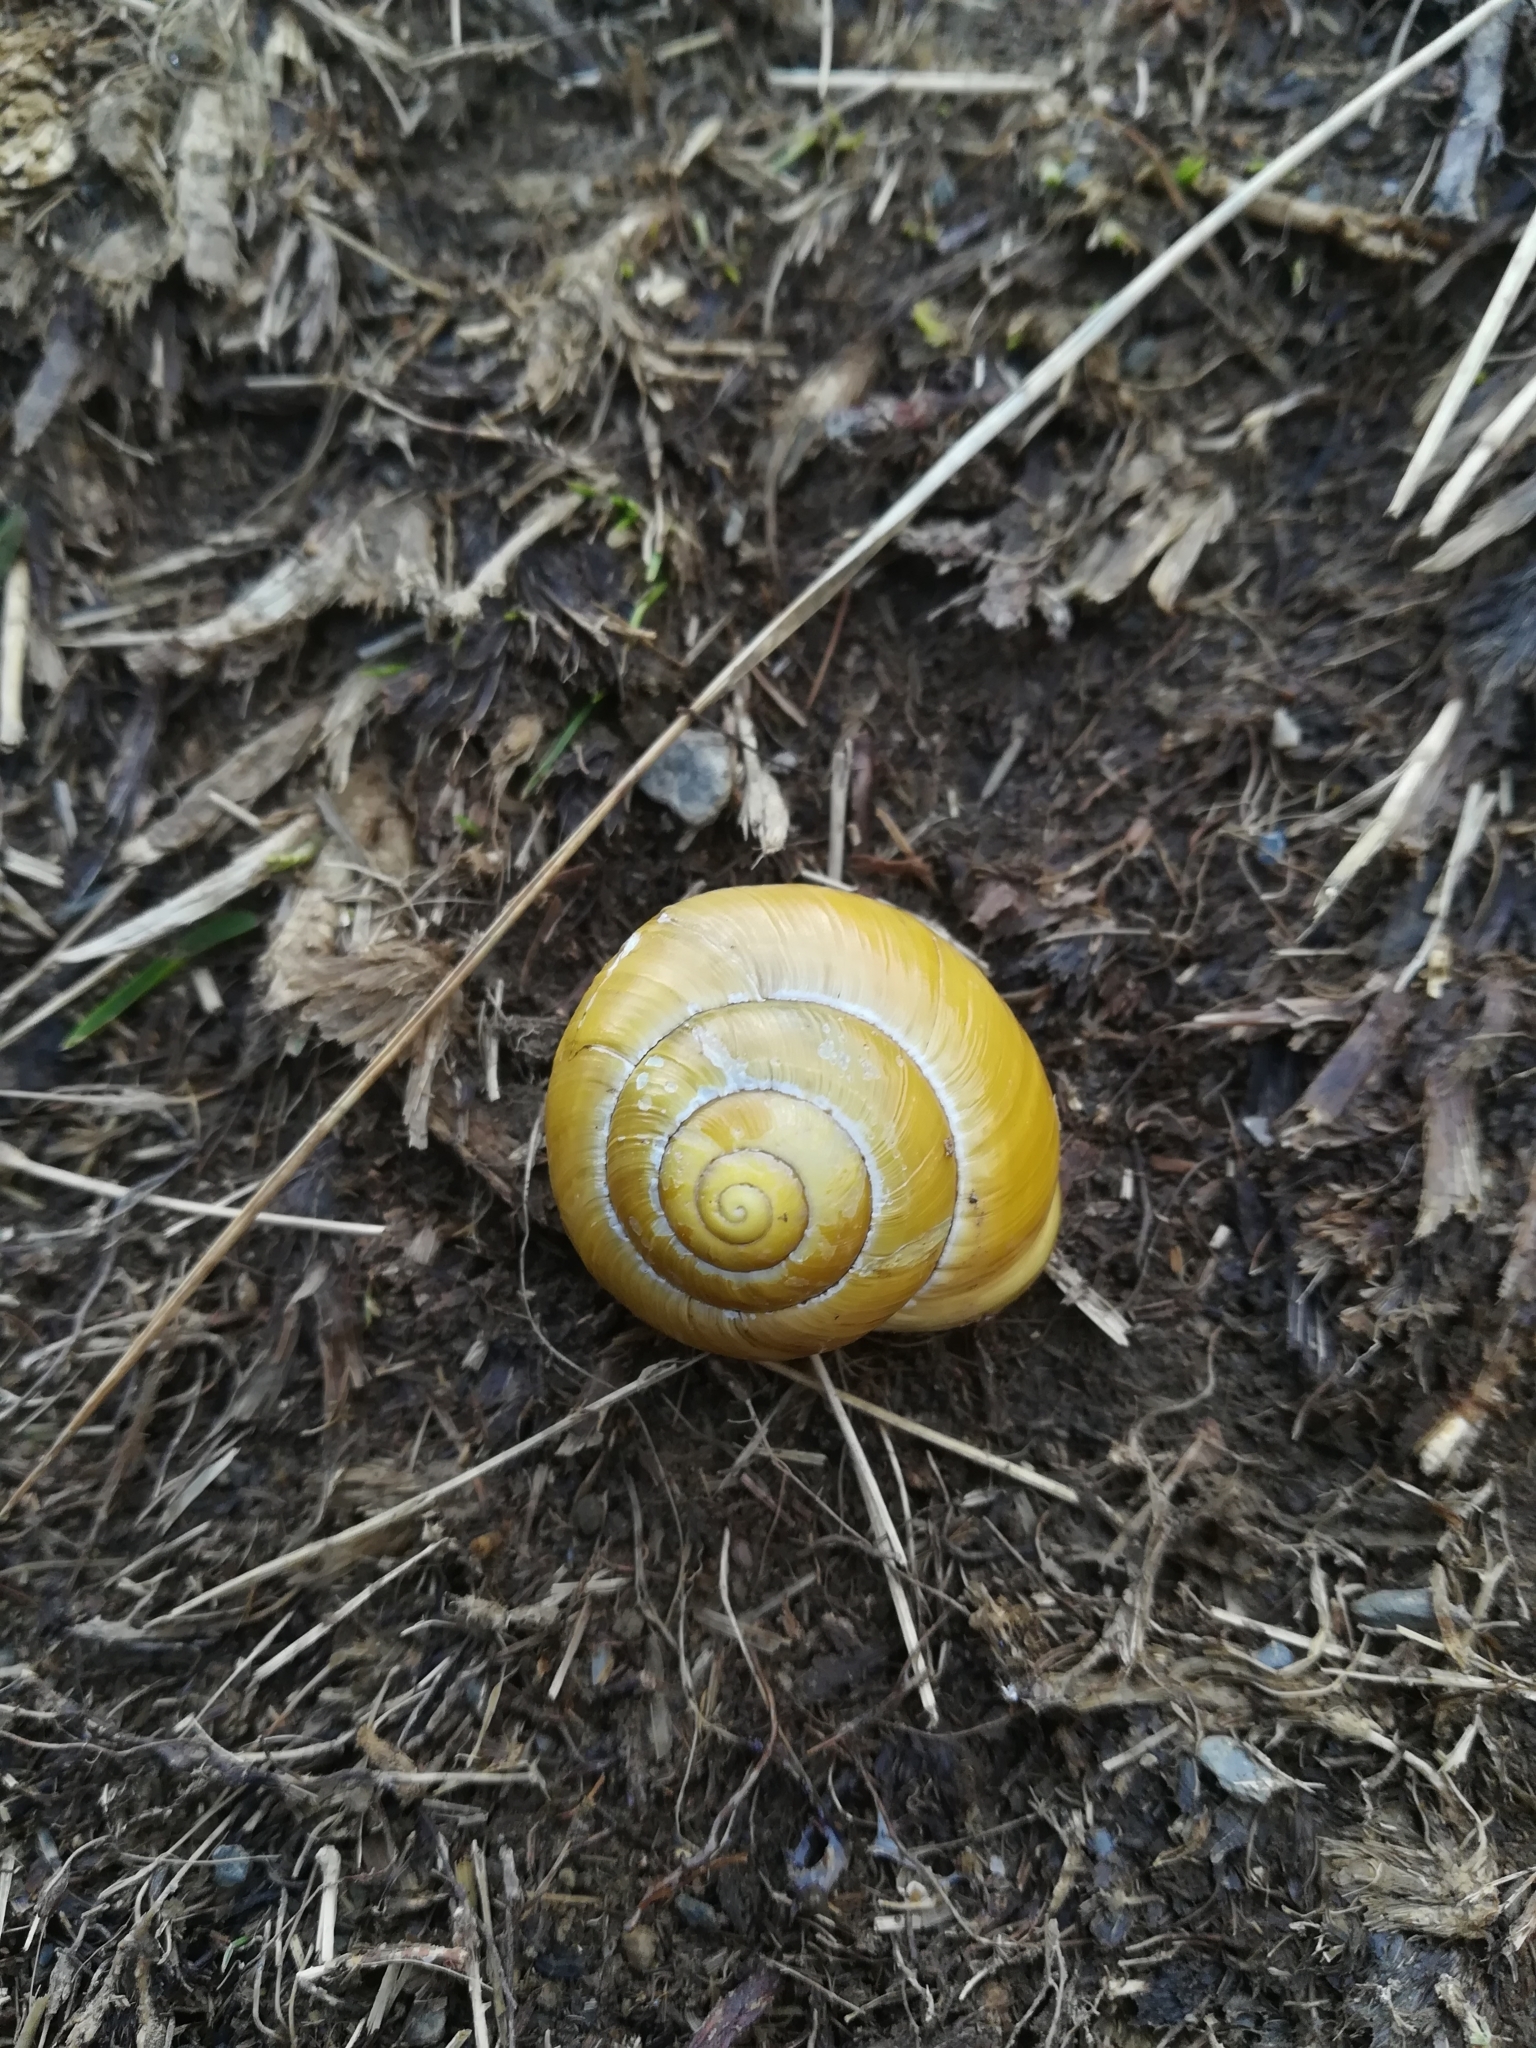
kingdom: Animalia
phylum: Mollusca
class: Gastropoda
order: Stylommatophora
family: Helicidae
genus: Cepaea
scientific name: Cepaea hortensis
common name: White-lip gardensnail
